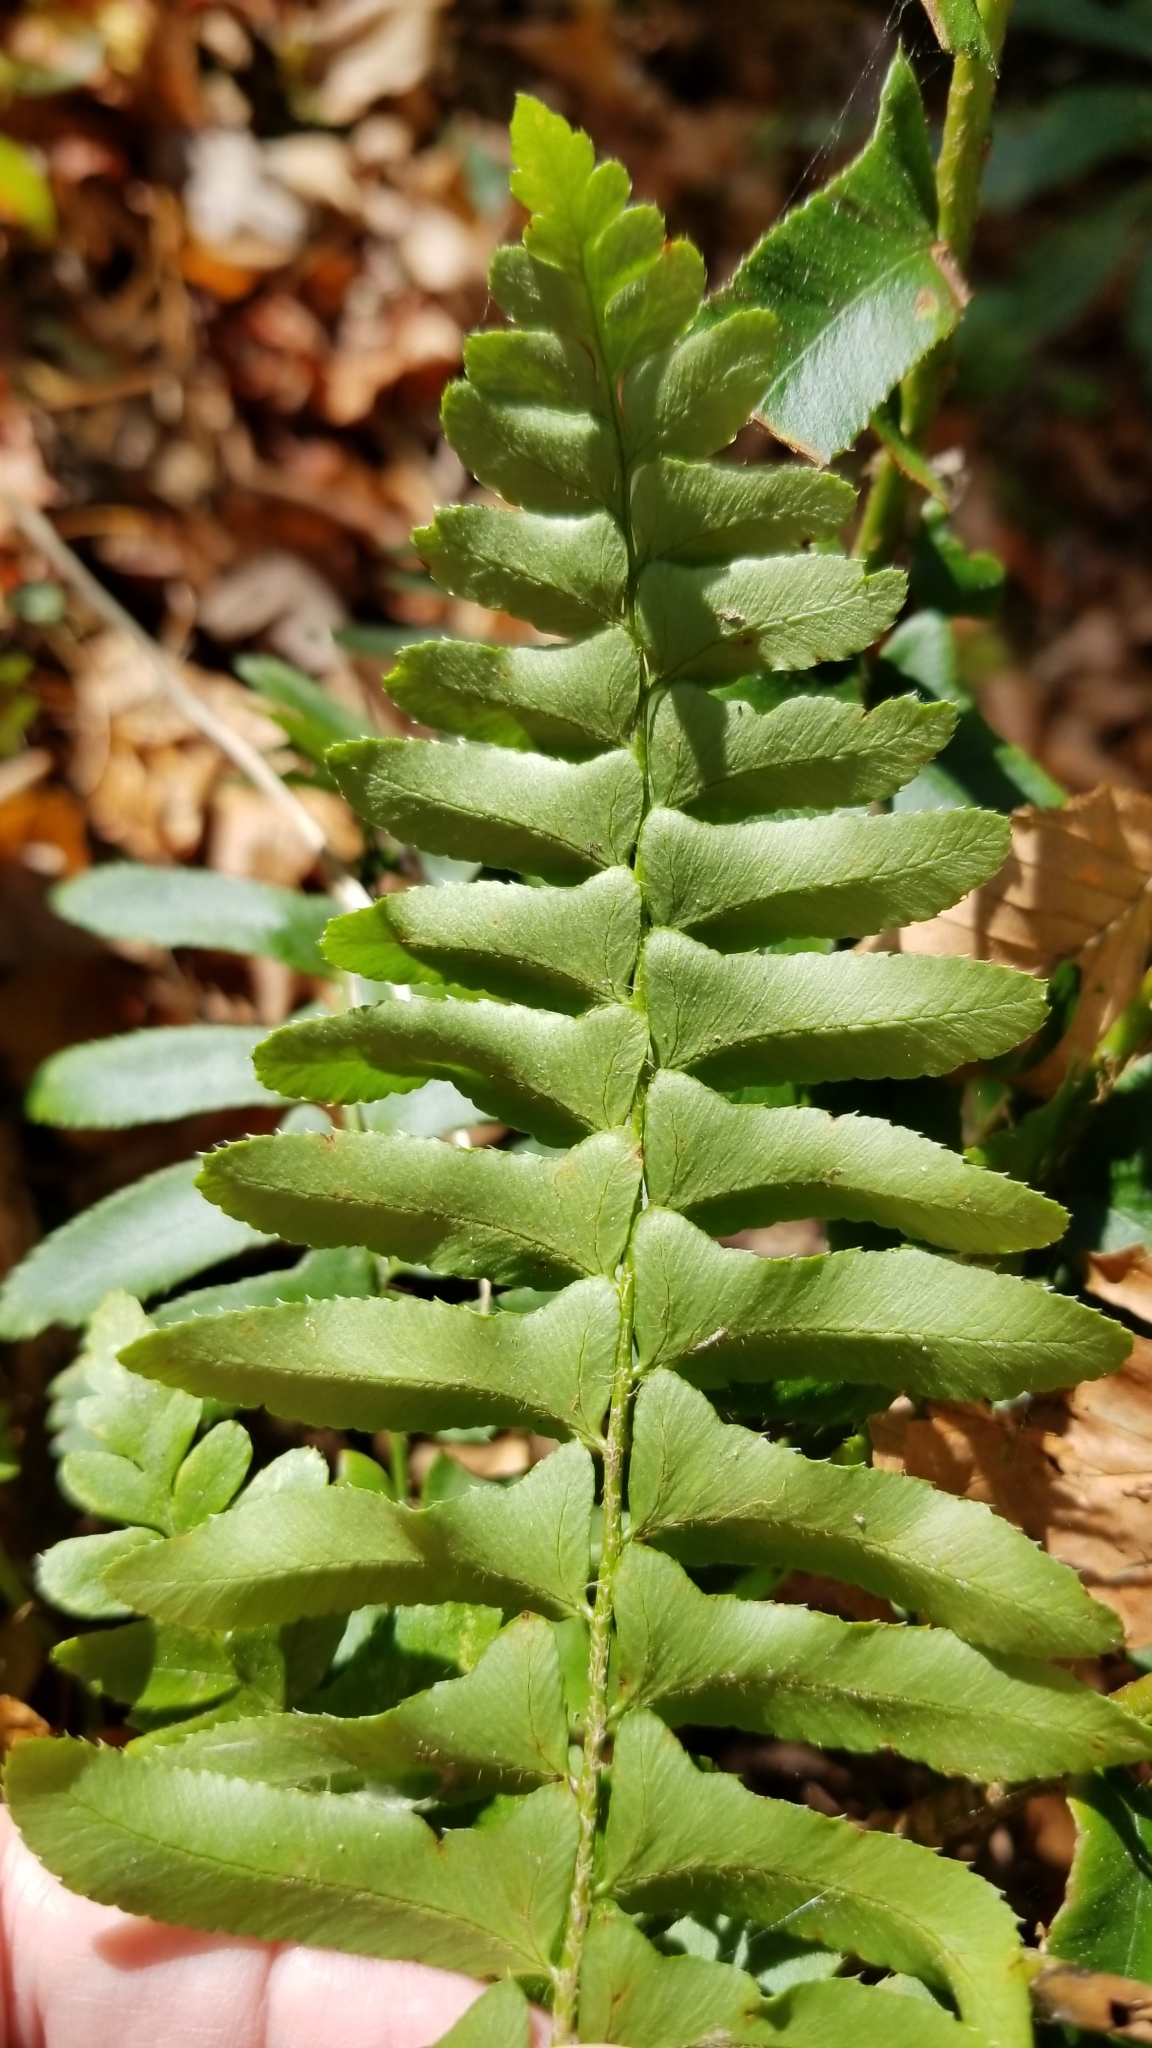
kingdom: Plantae
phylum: Tracheophyta
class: Polypodiopsida
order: Polypodiales
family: Dryopteridaceae
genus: Polystichum
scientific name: Polystichum acrostichoides
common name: Christmas fern
